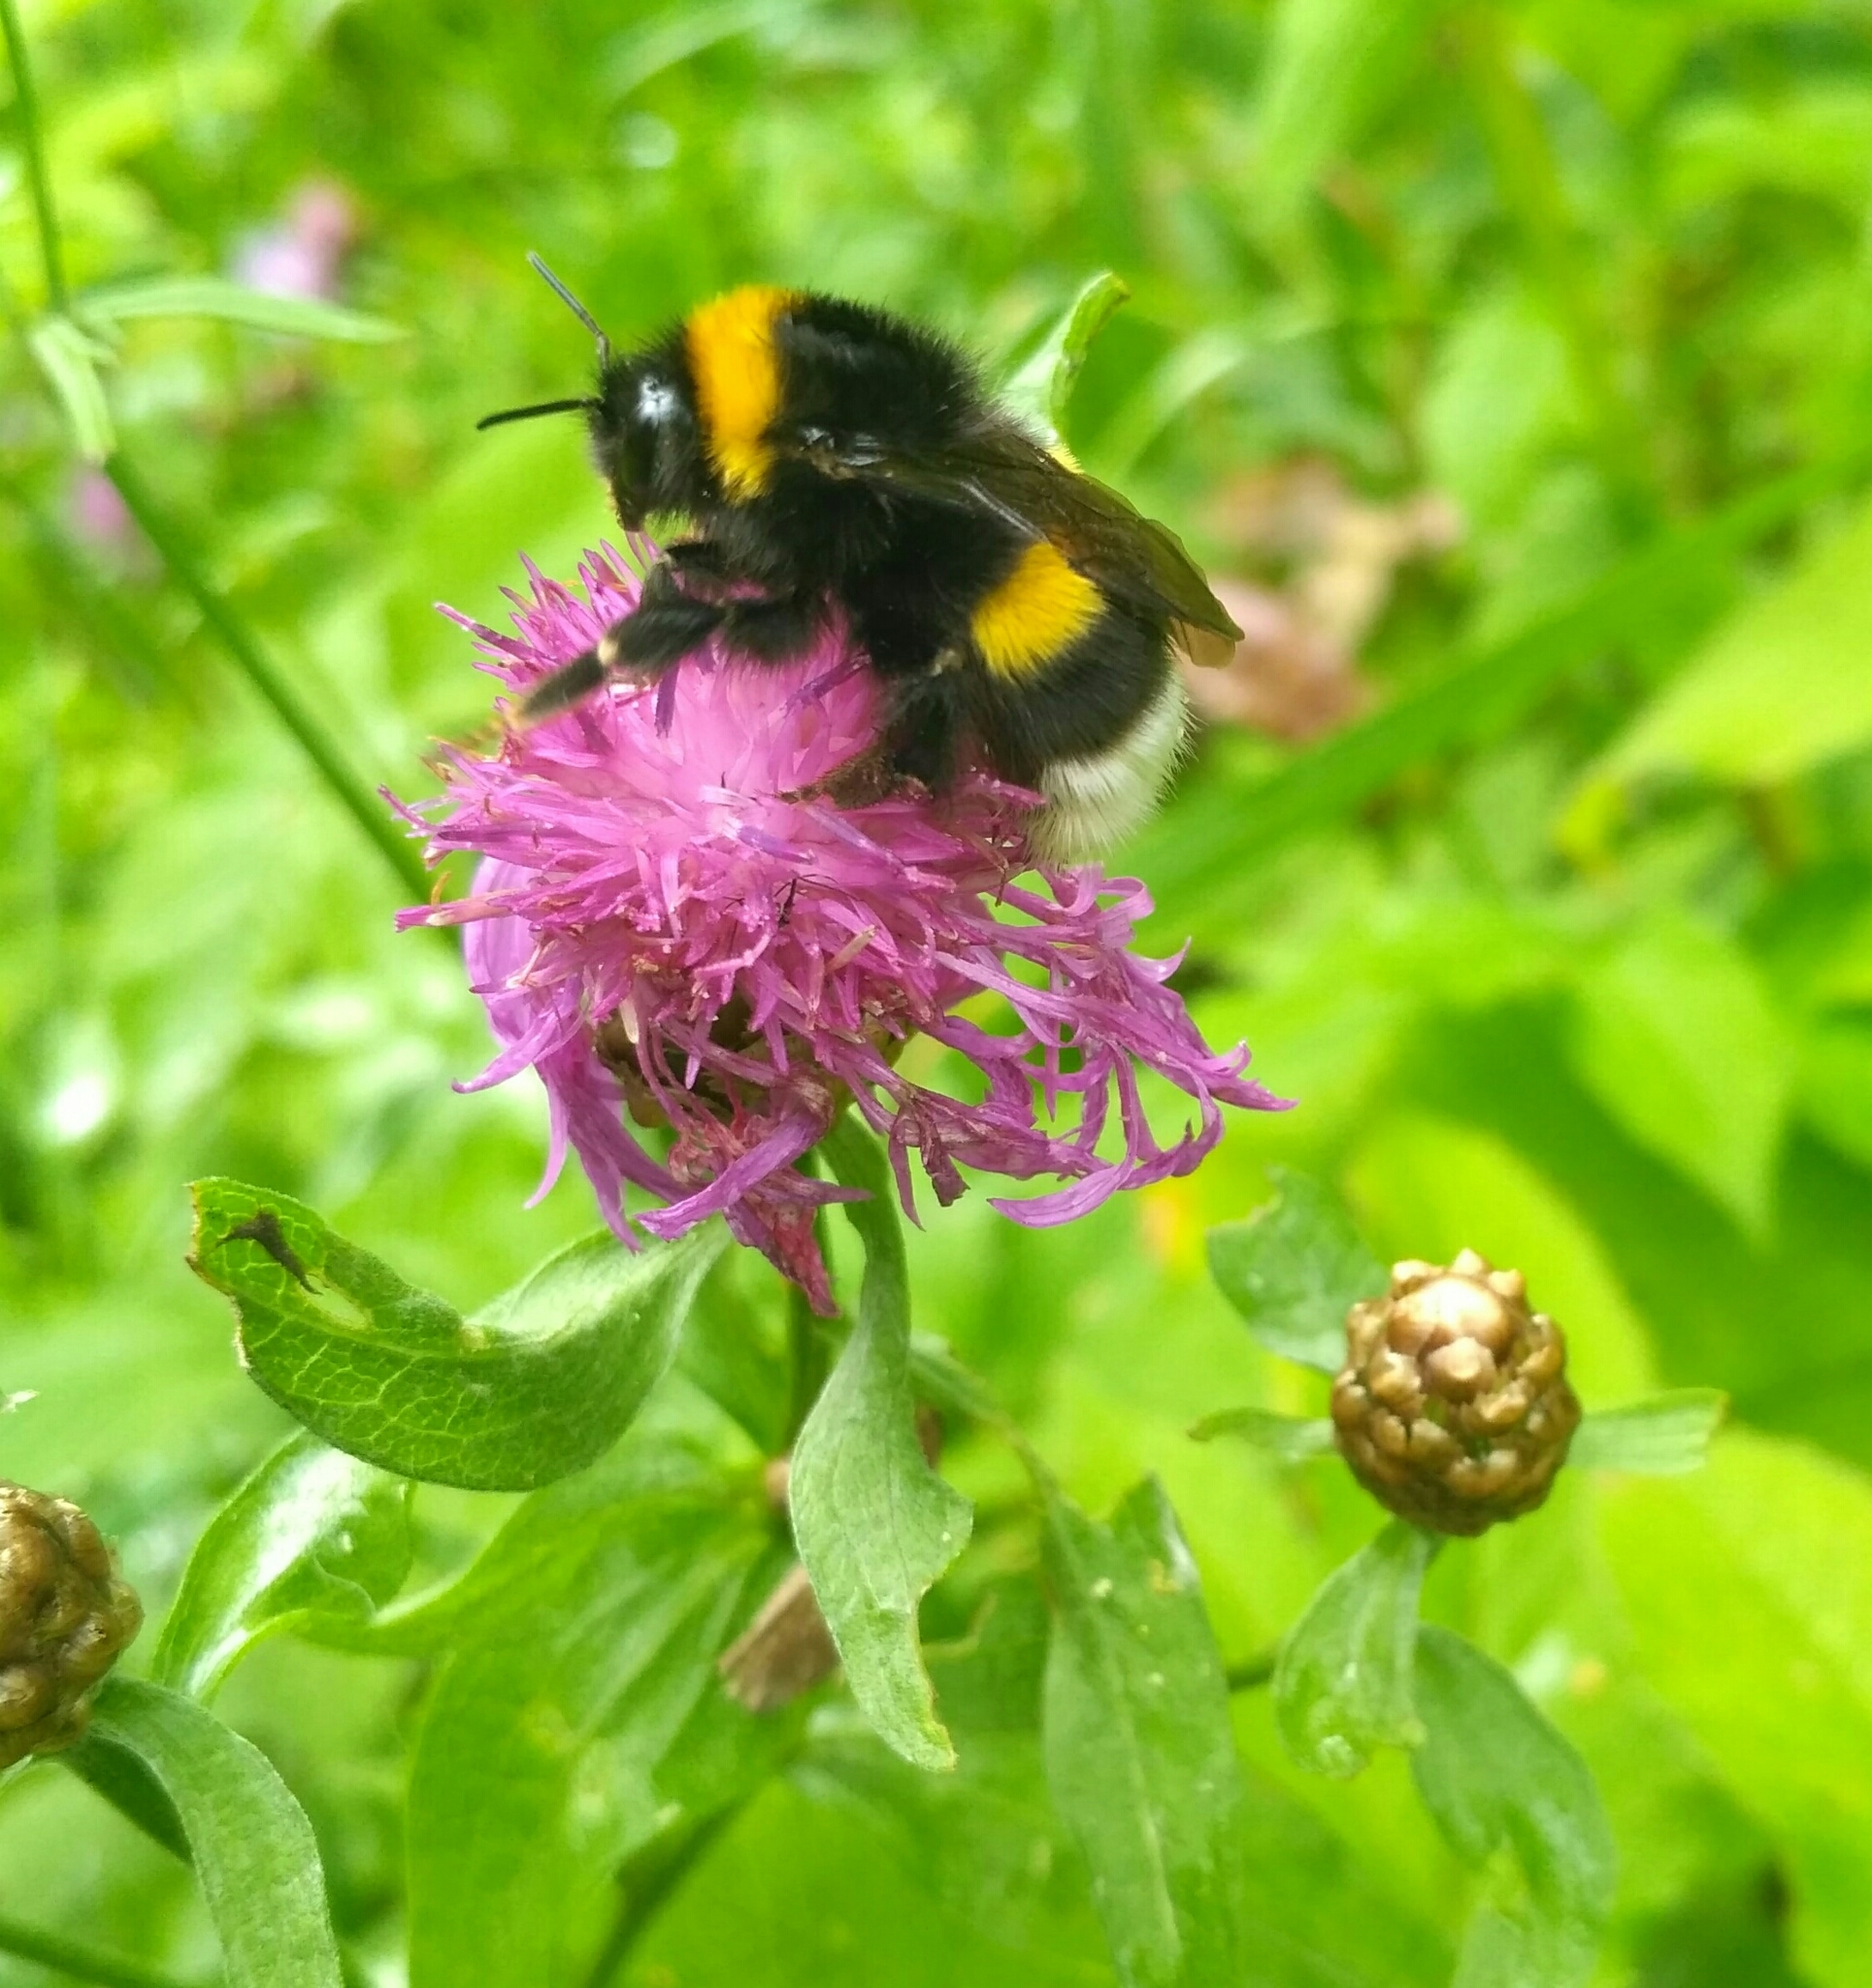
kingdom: Animalia
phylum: Arthropoda
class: Insecta
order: Hymenoptera
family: Apidae
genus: Bombus
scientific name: Bombus
